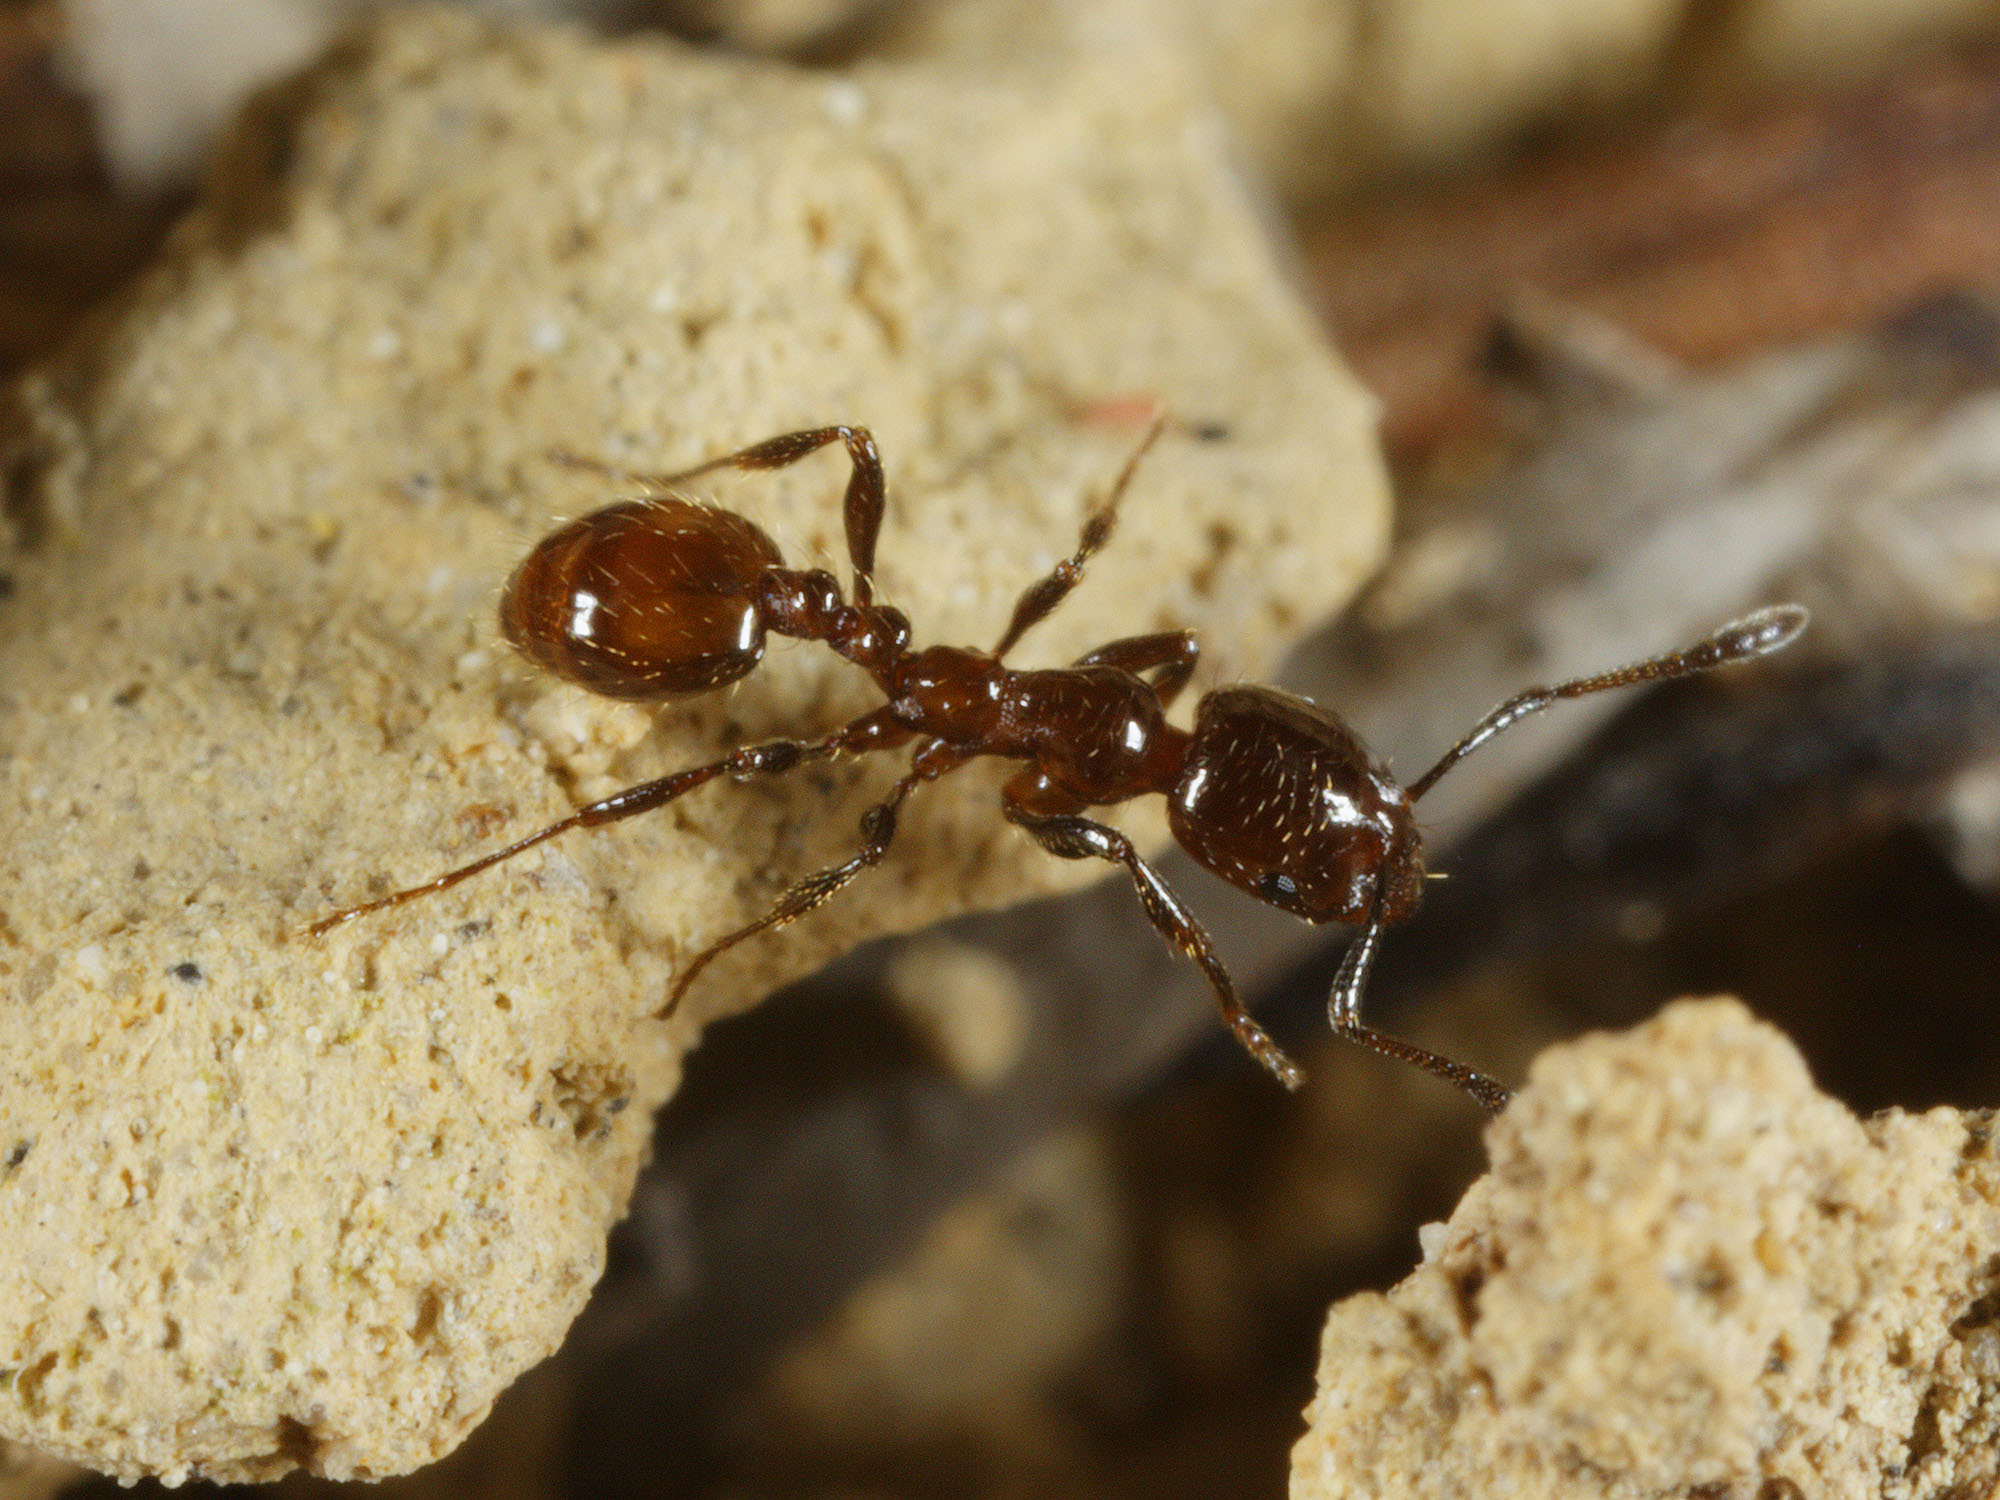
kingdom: Animalia
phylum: Arthropoda
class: Insecta
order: Hymenoptera
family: Formicidae
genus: Monomorium
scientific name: Monomorium antarcticum
